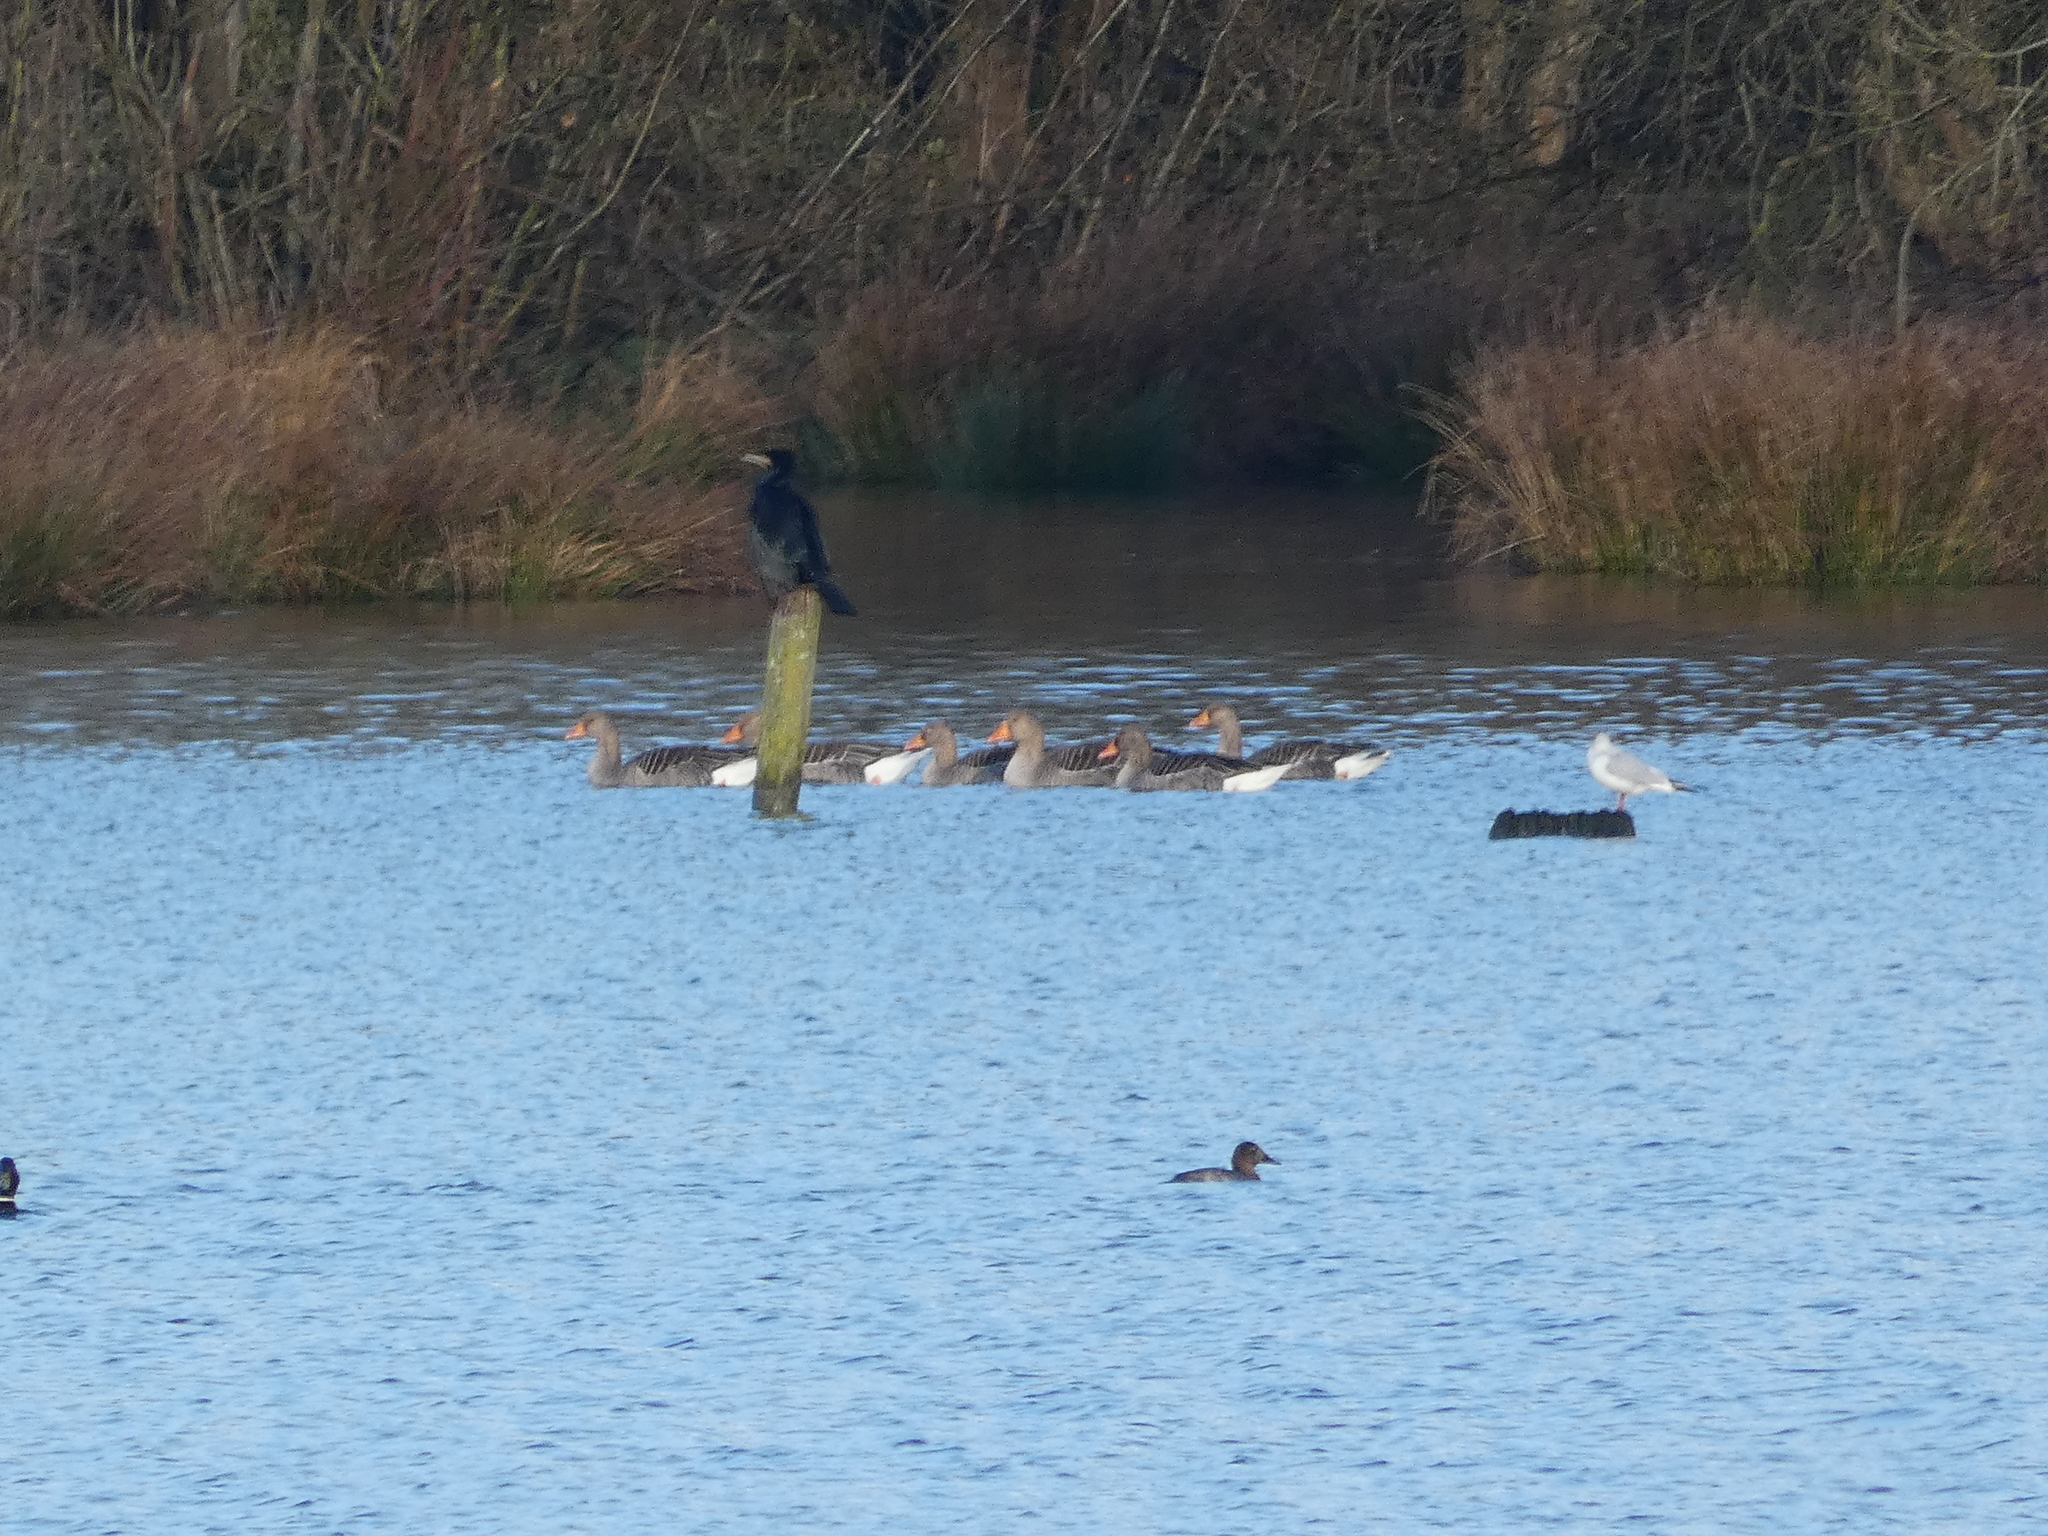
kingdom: Animalia
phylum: Chordata
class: Aves
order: Anseriformes
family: Anatidae
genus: Anser
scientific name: Anser anser
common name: Greylag goose
